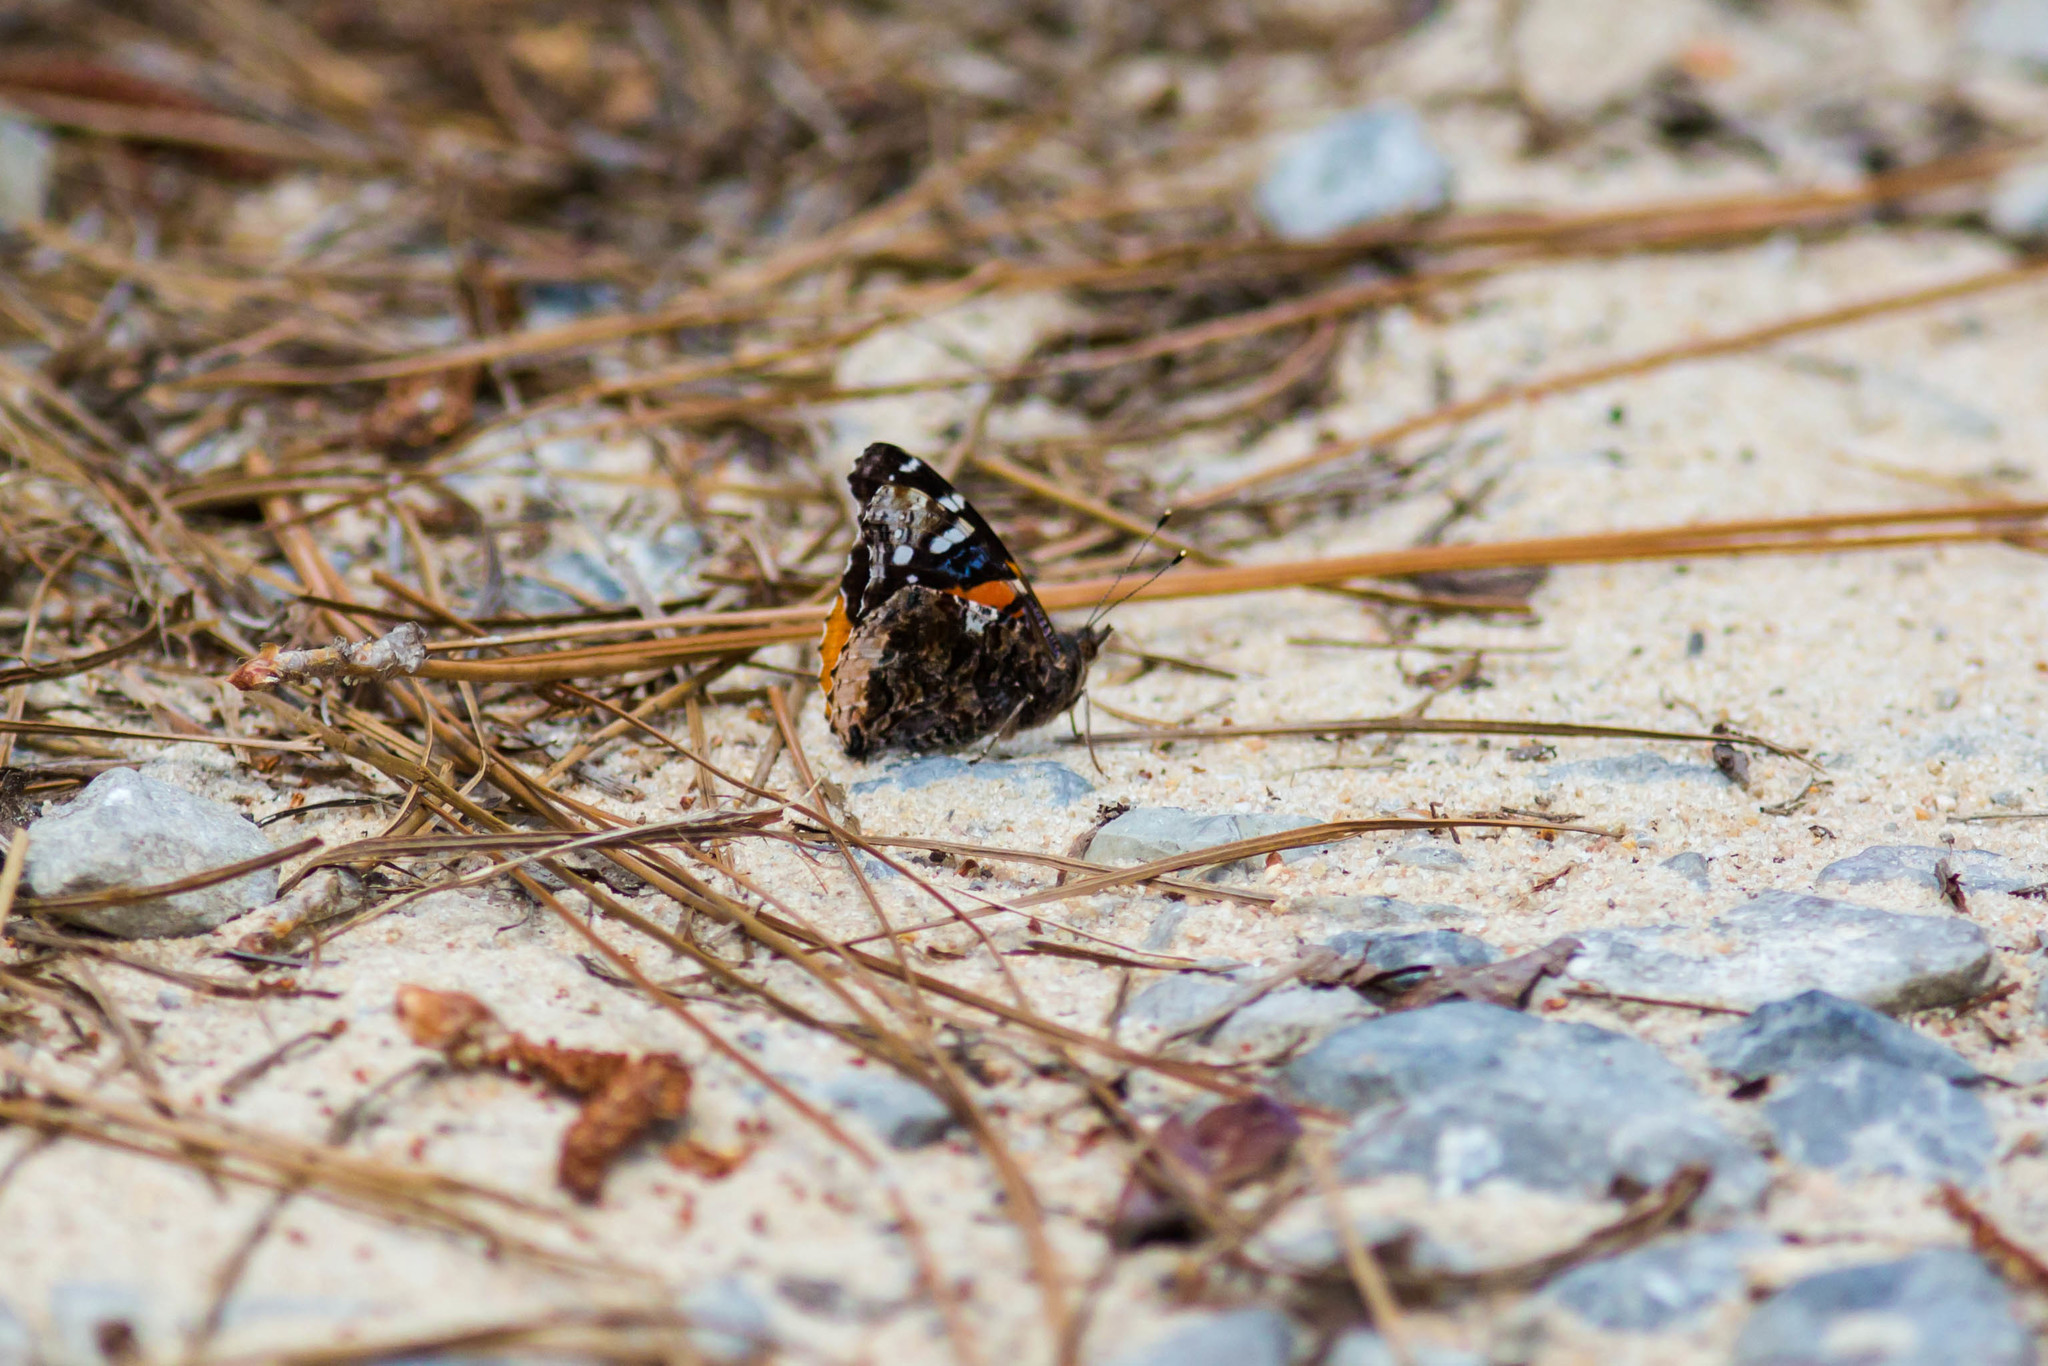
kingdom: Animalia
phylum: Arthropoda
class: Insecta
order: Lepidoptera
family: Nymphalidae
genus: Vanessa
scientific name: Vanessa atalanta
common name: Red admiral
